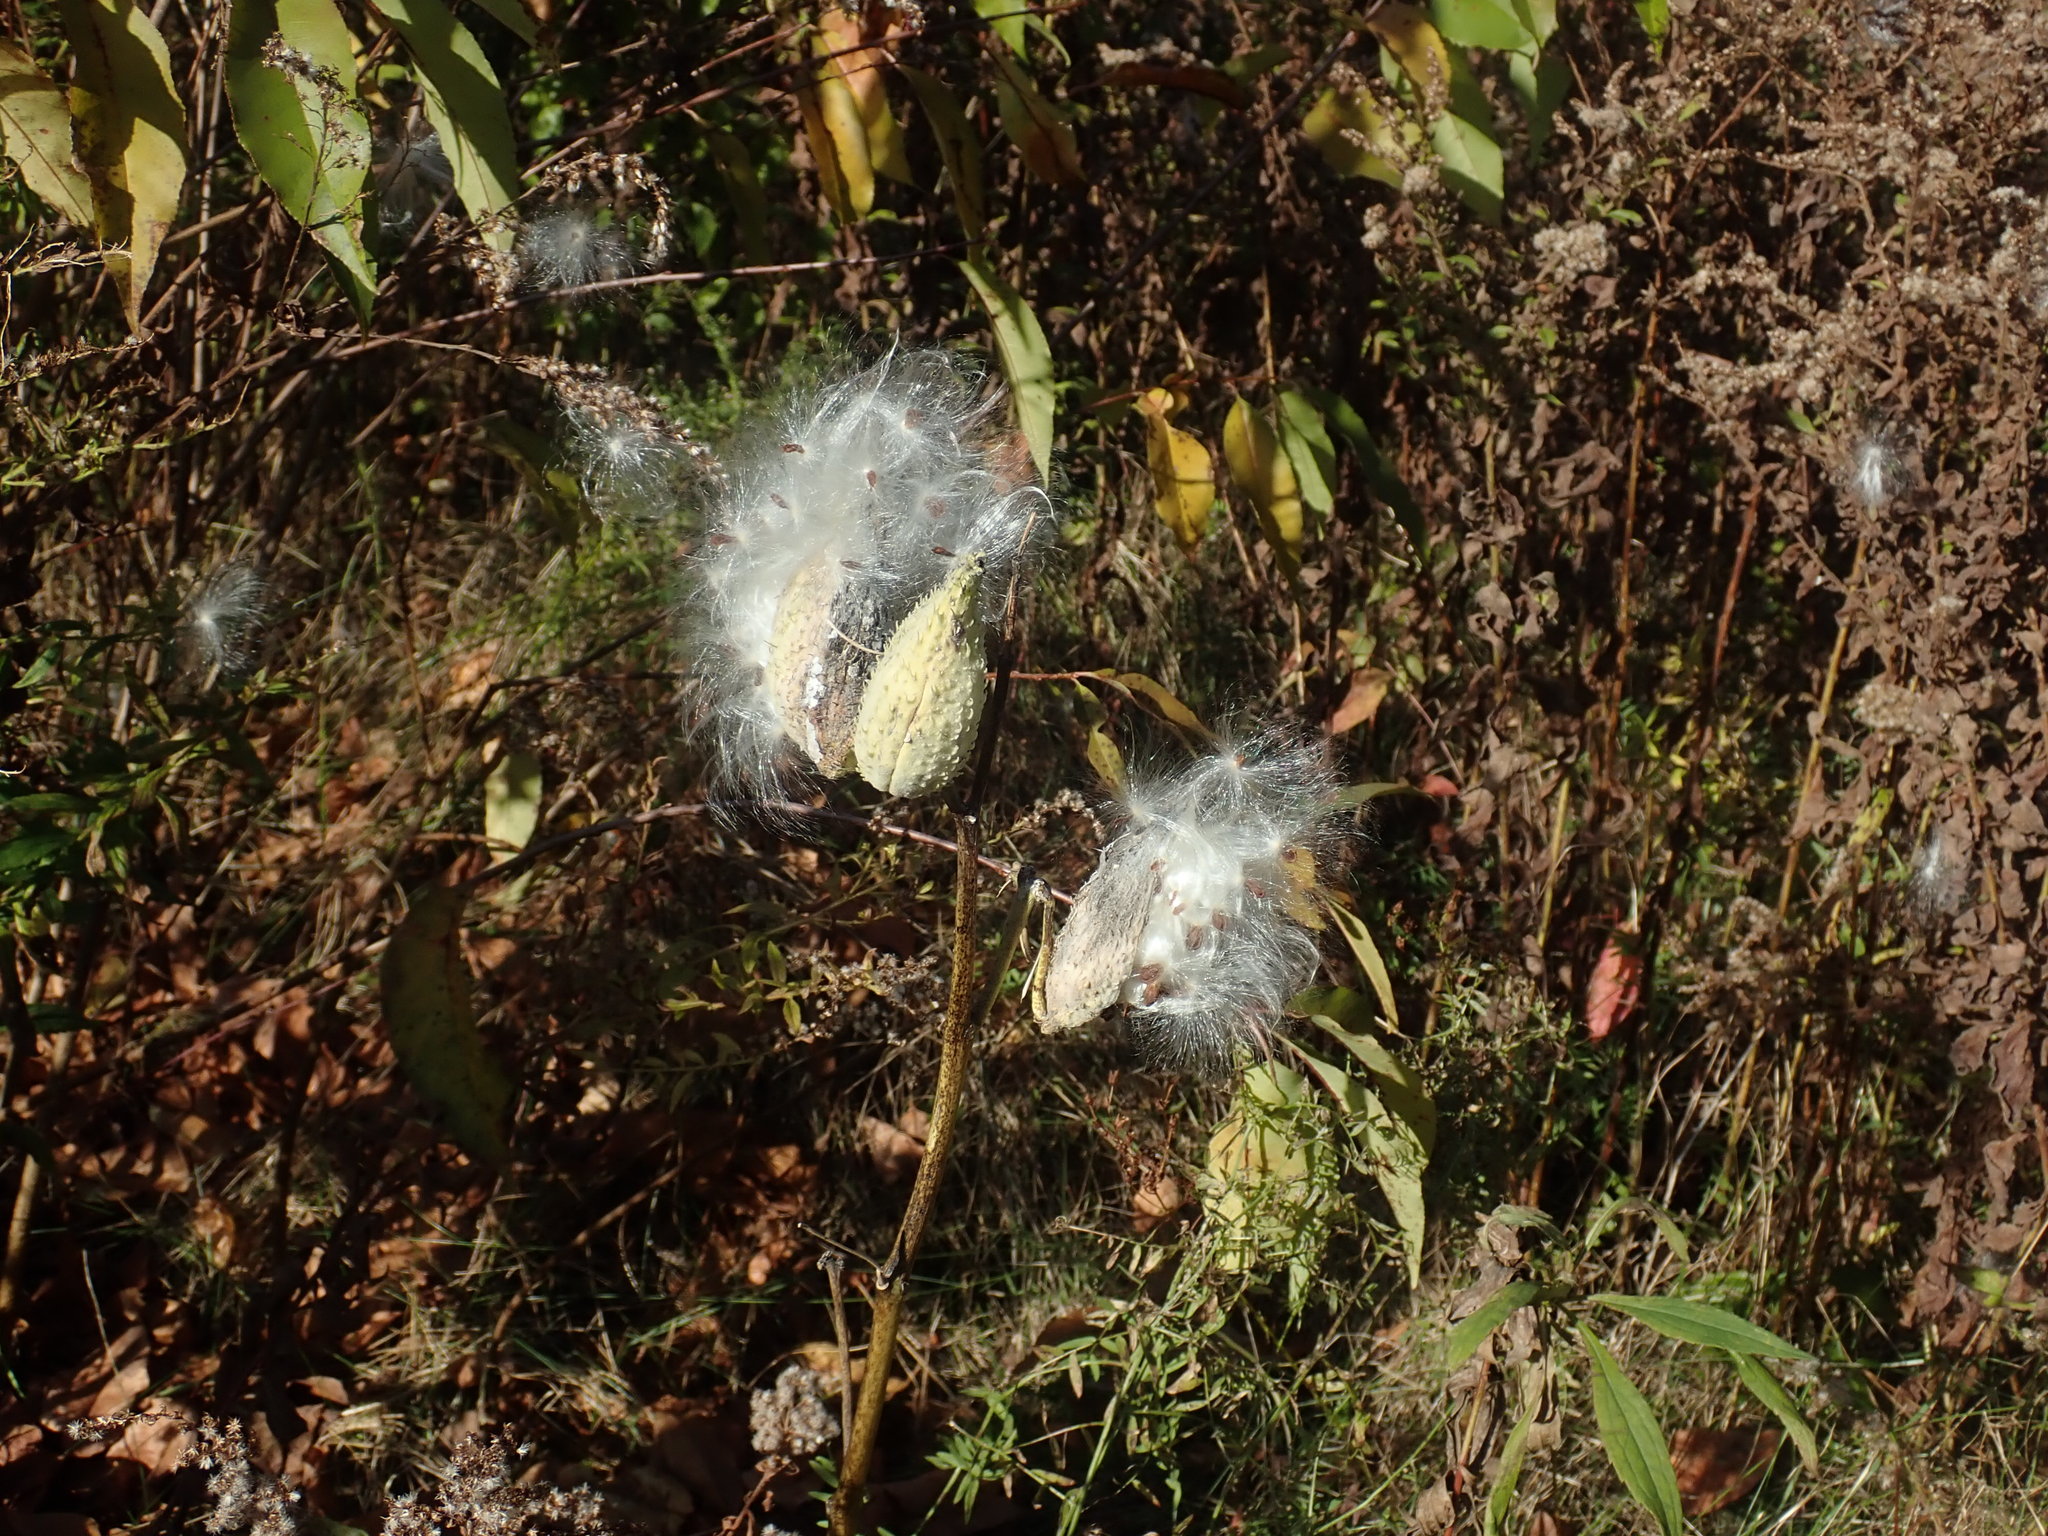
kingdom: Plantae
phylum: Tracheophyta
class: Magnoliopsida
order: Gentianales
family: Apocynaceae
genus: Asclepias
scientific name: Asclepias syriaca
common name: Common milkweed
